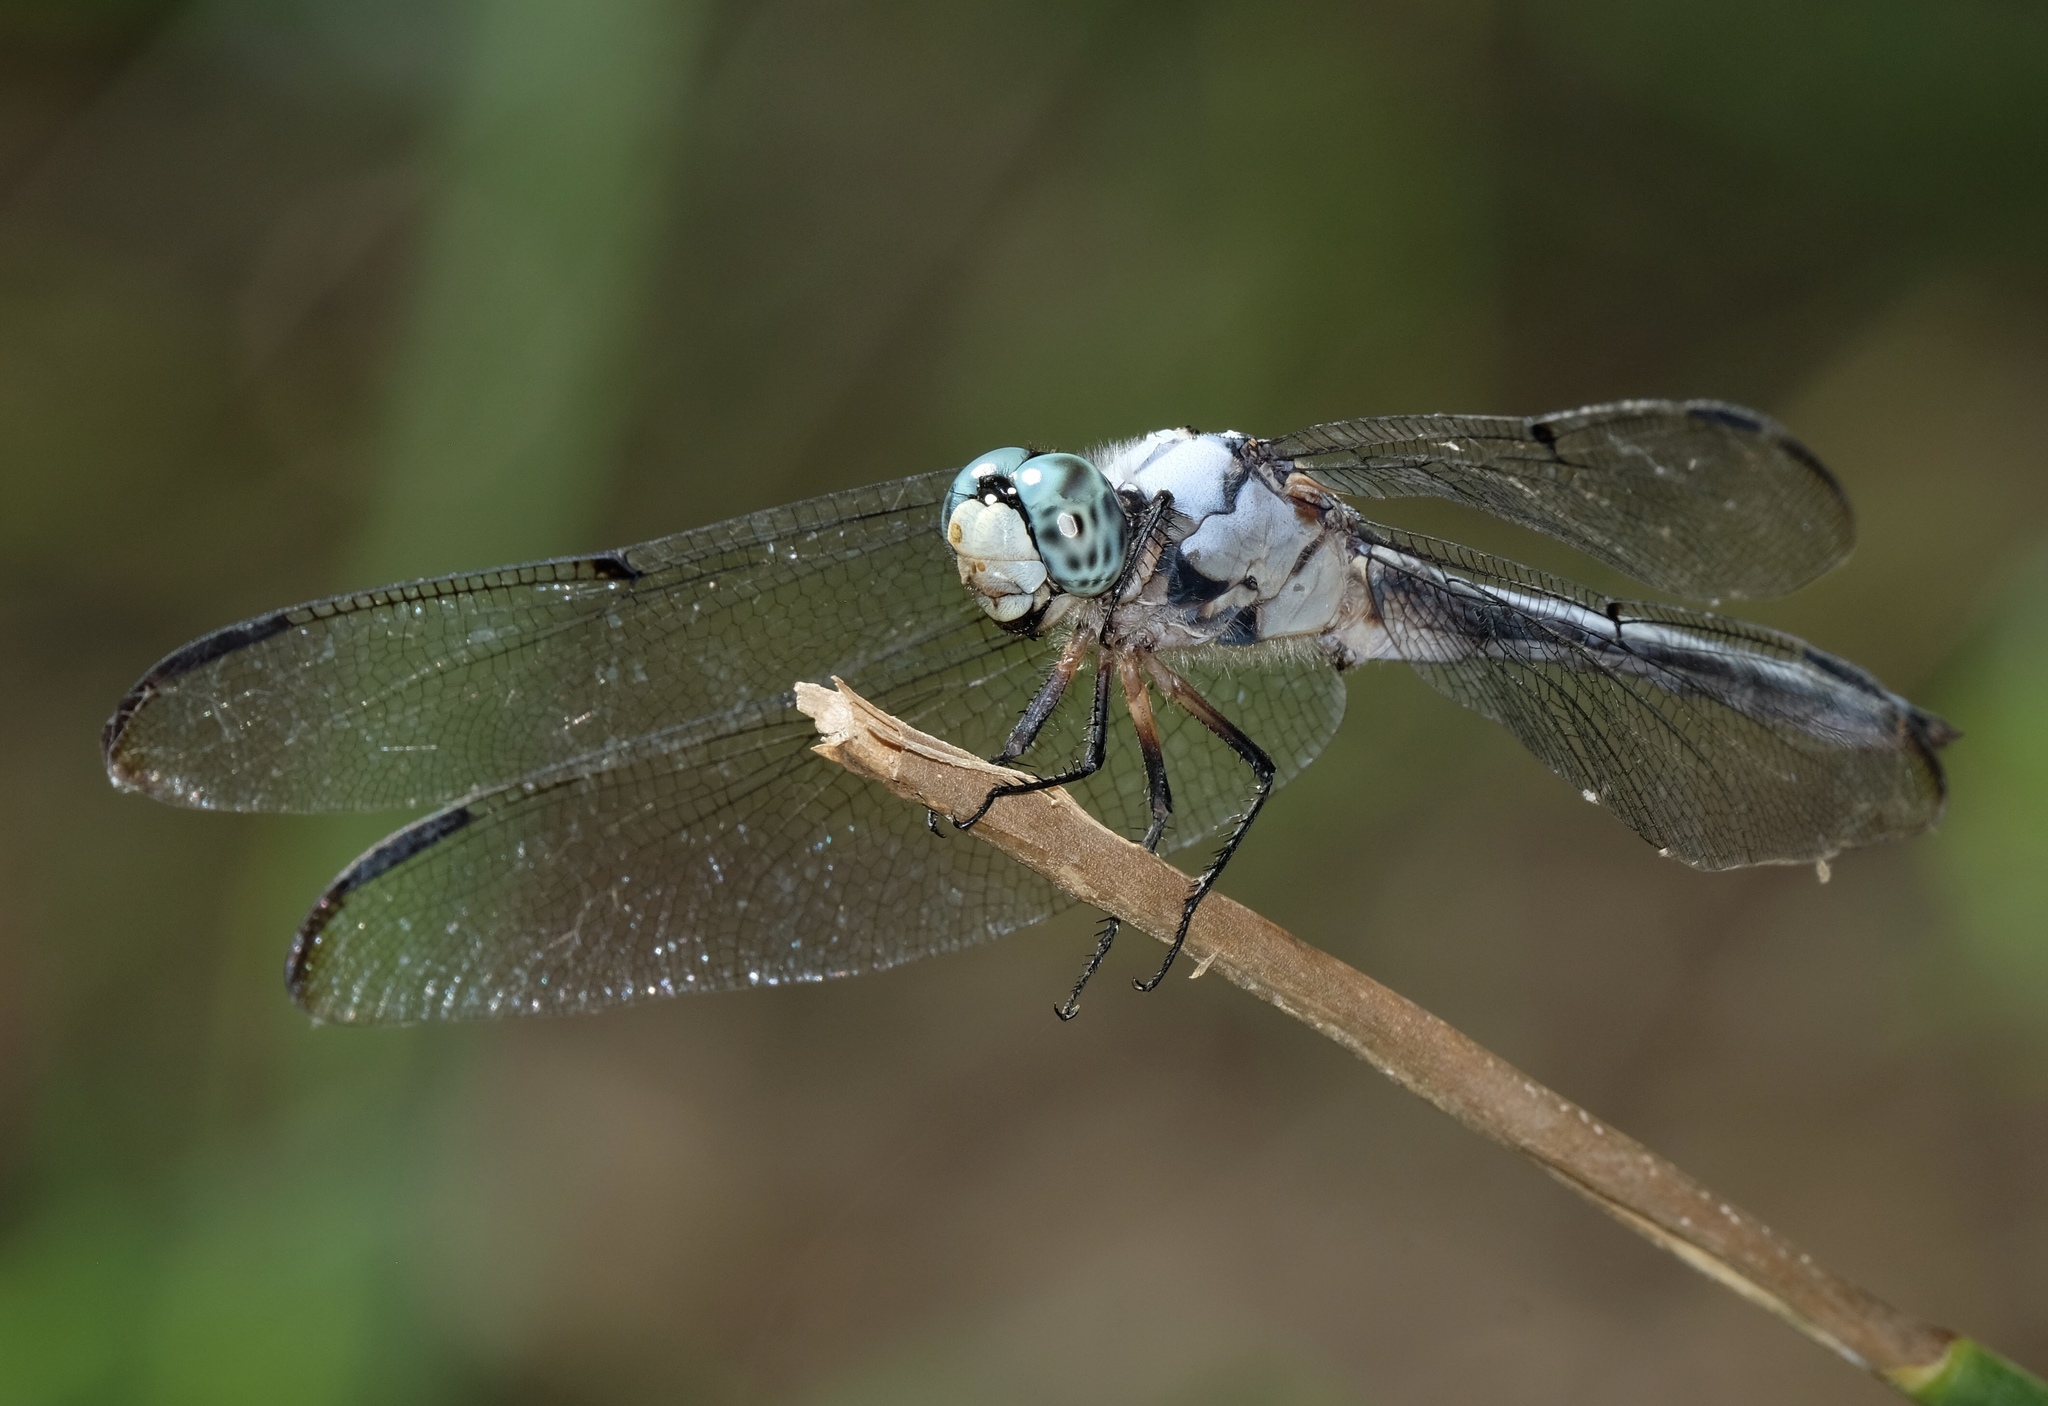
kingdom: Animalia
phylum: Arthropoda
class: Insecta
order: Odonata
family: Libellulidae
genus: Libellula
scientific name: Libellula vibrans
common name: Great blue skimmer
